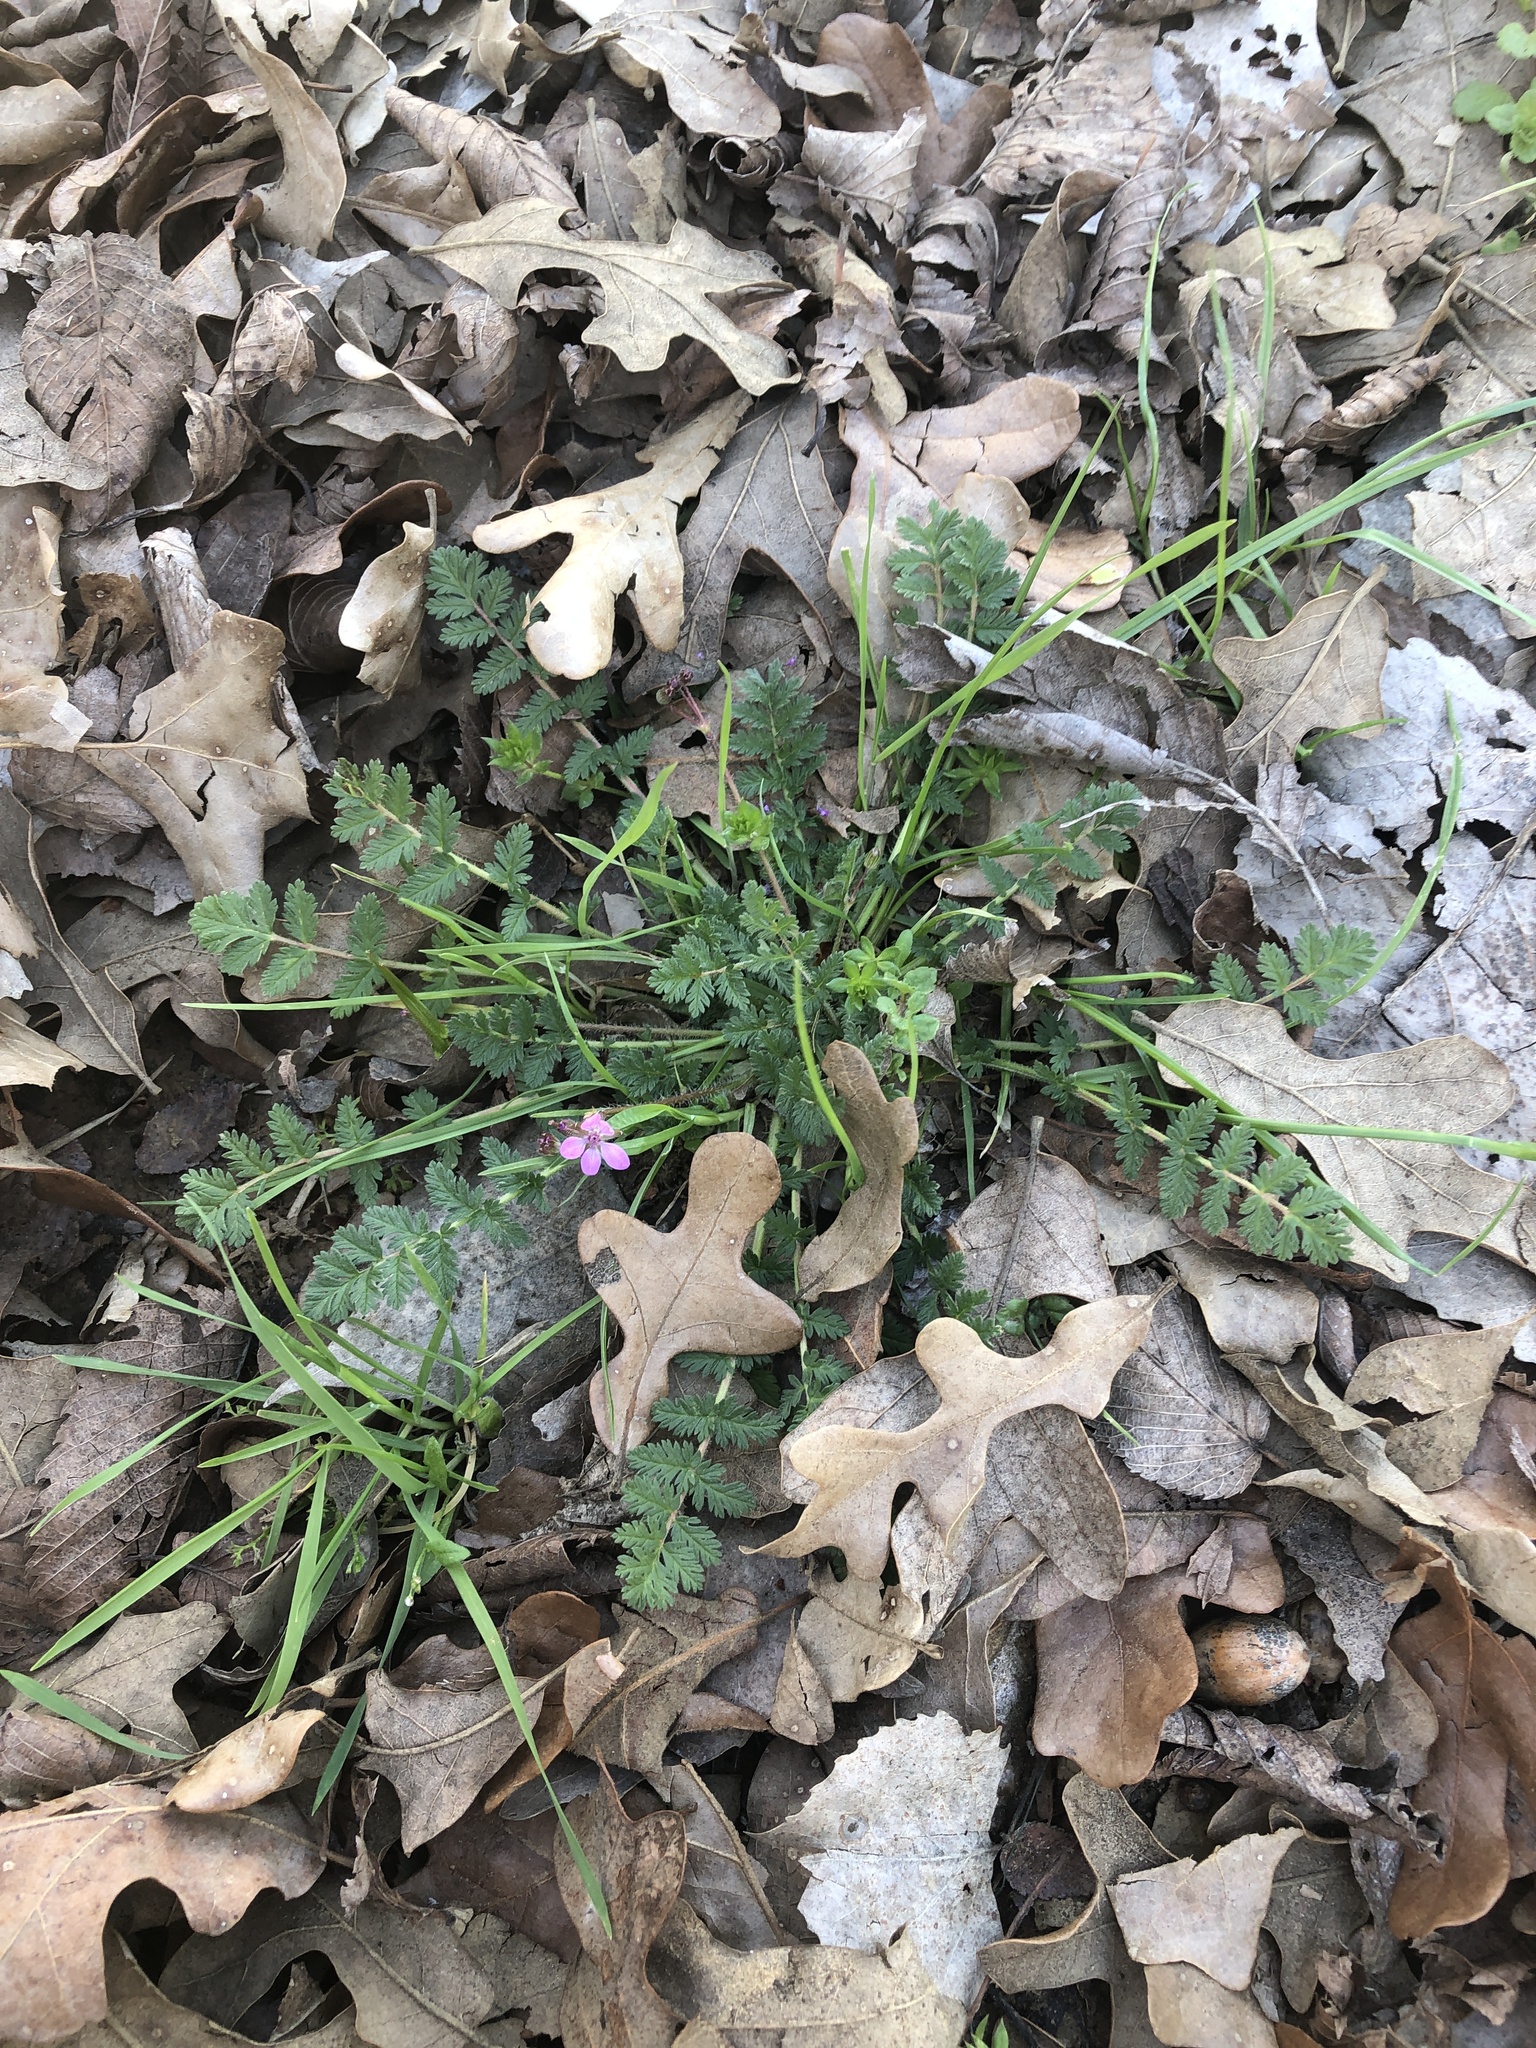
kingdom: Plantae
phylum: Tracheophyta
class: Magnoliopsida
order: Geraniales
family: Geraniaceae
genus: Erodium
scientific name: Erodium cicutarium
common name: Common stork's-bill
